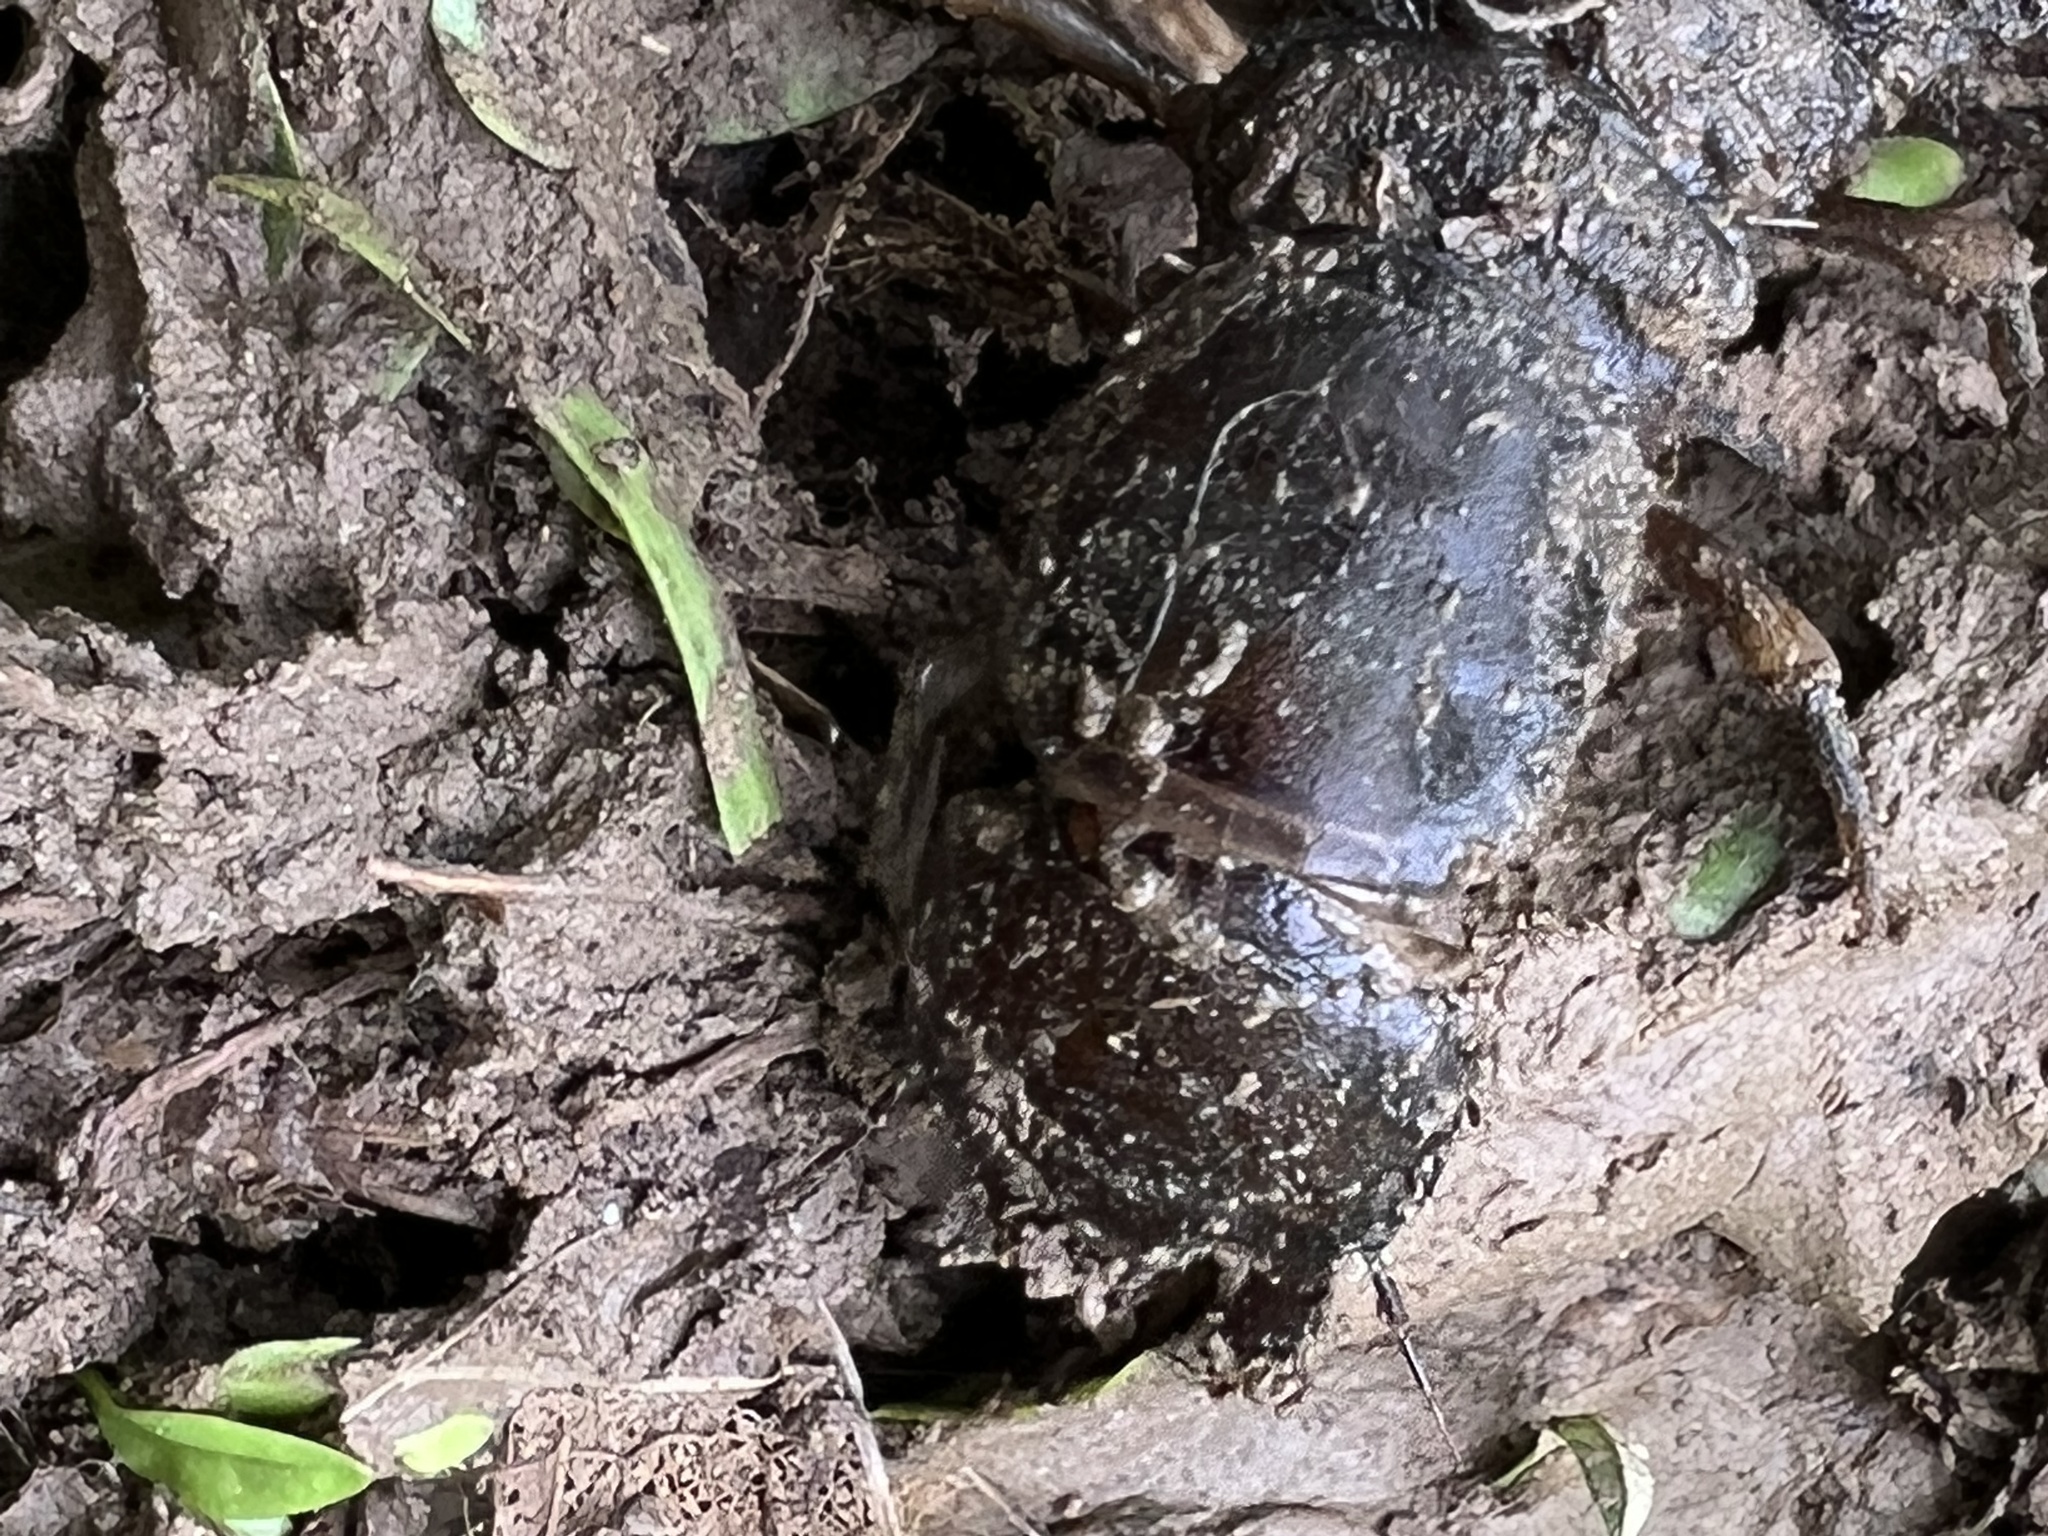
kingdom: Animalia
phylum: Arthropoda
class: Insecta
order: Megaloptera
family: Corydalidae
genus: Corydalus
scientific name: Corydalus cornutus
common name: Dobsonfly
